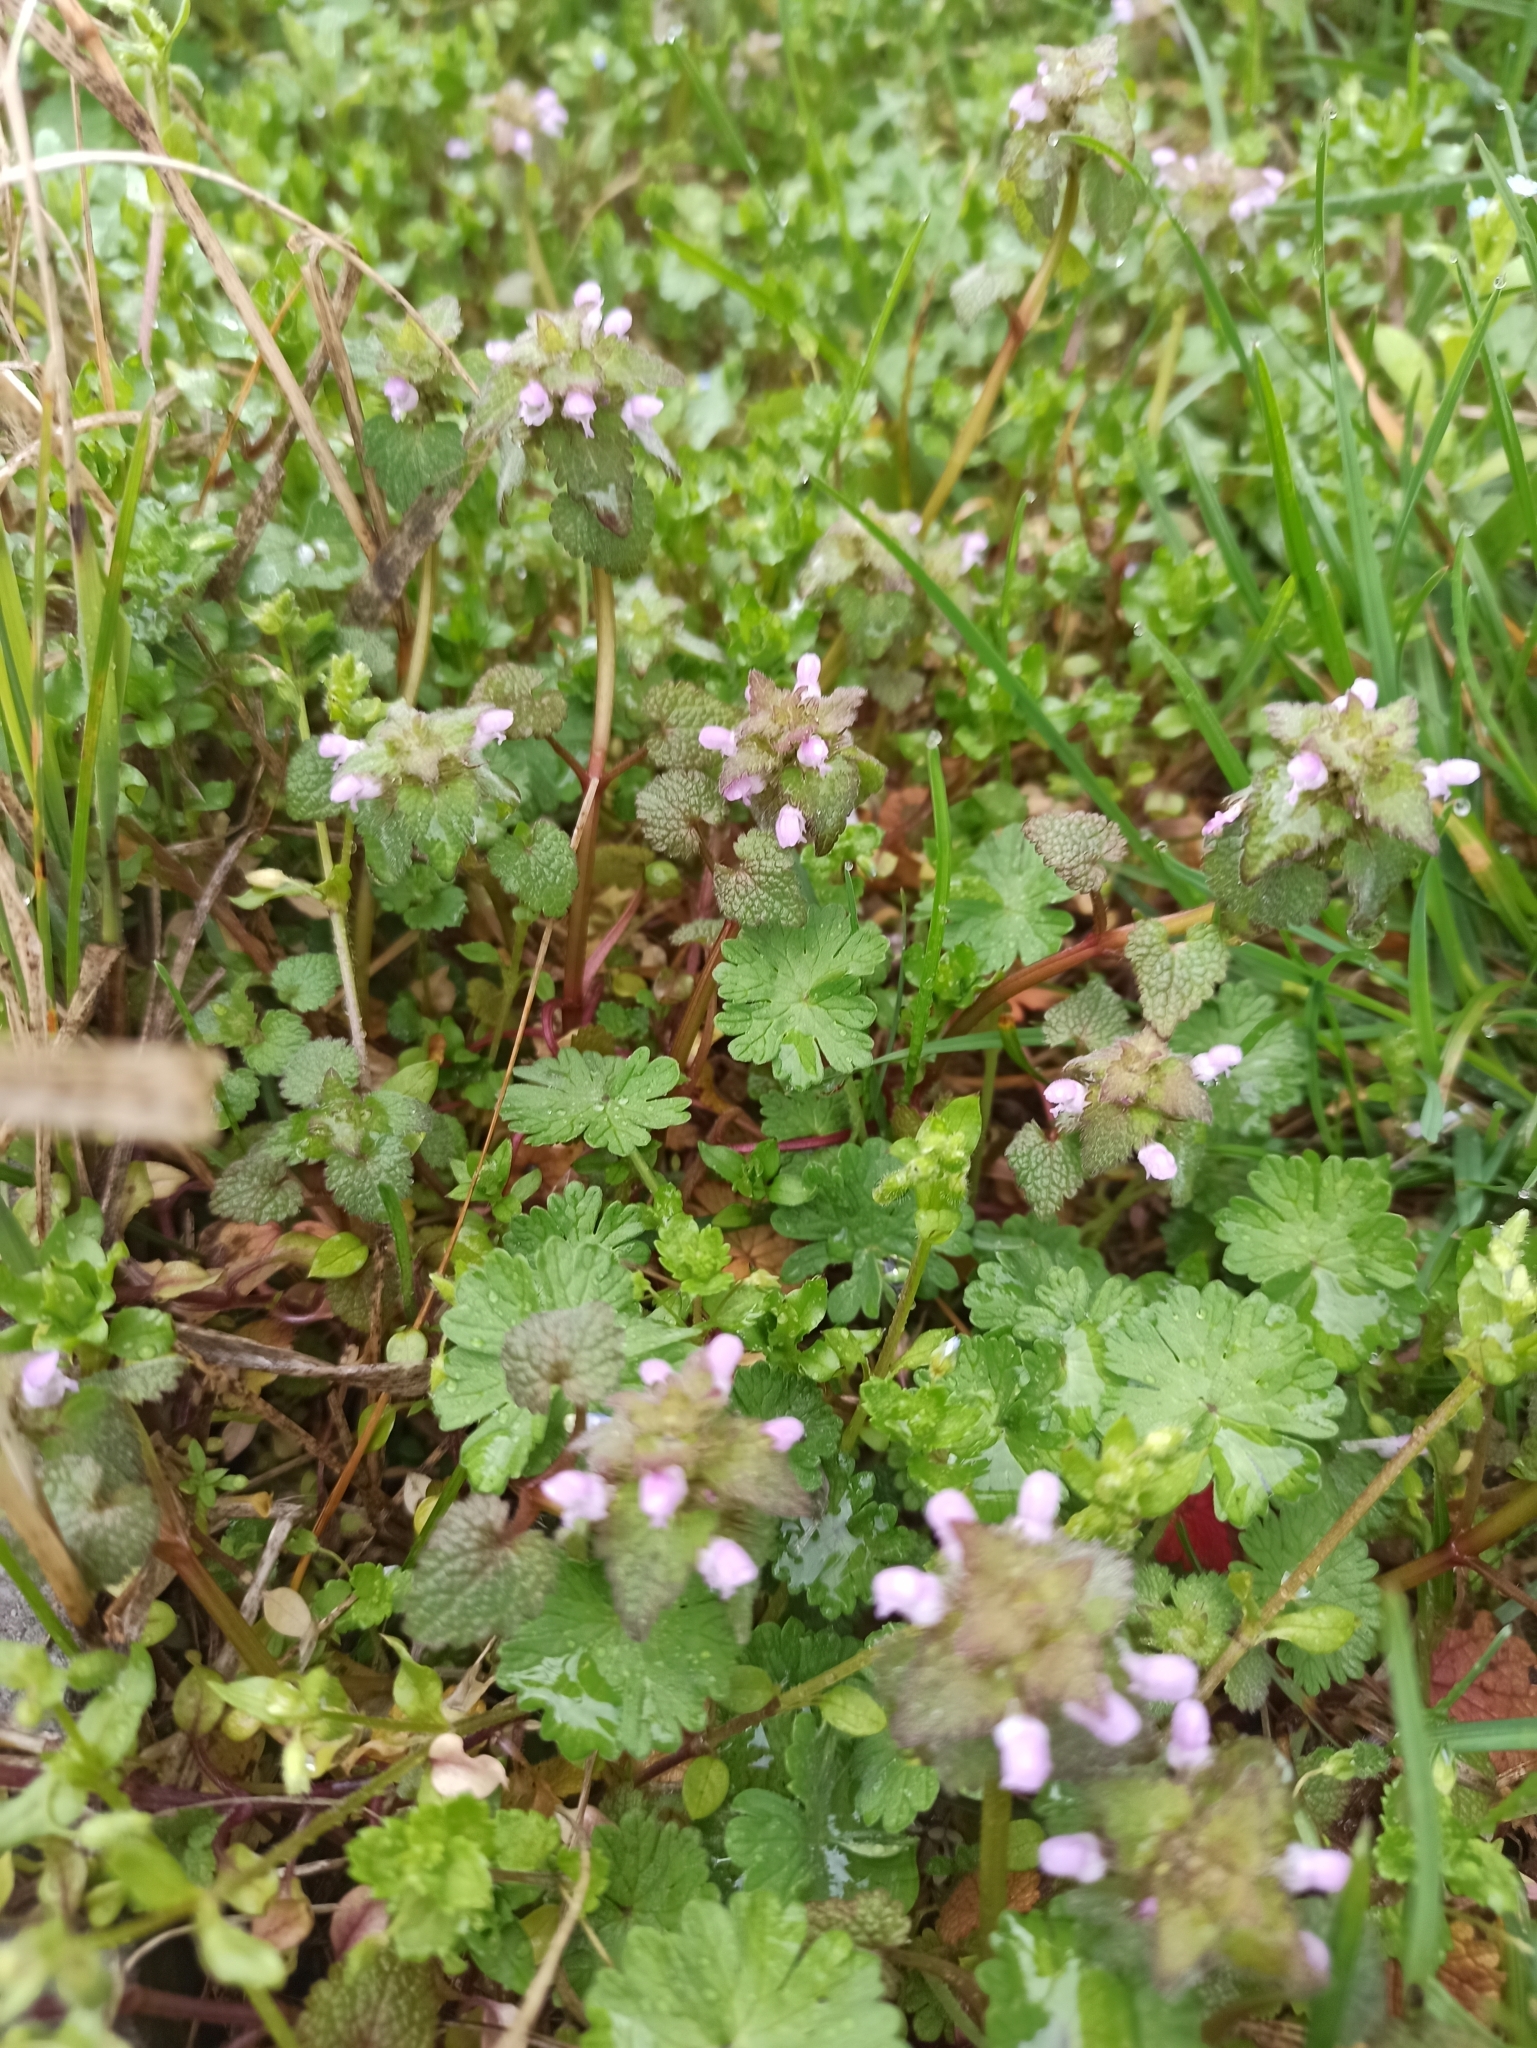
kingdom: Plantae
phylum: Tracheophyta
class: Magnoliopsida
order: Lamiales
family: Lamiaceae
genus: Lamium
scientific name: Lamium purpureum
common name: Red dead-nettle
